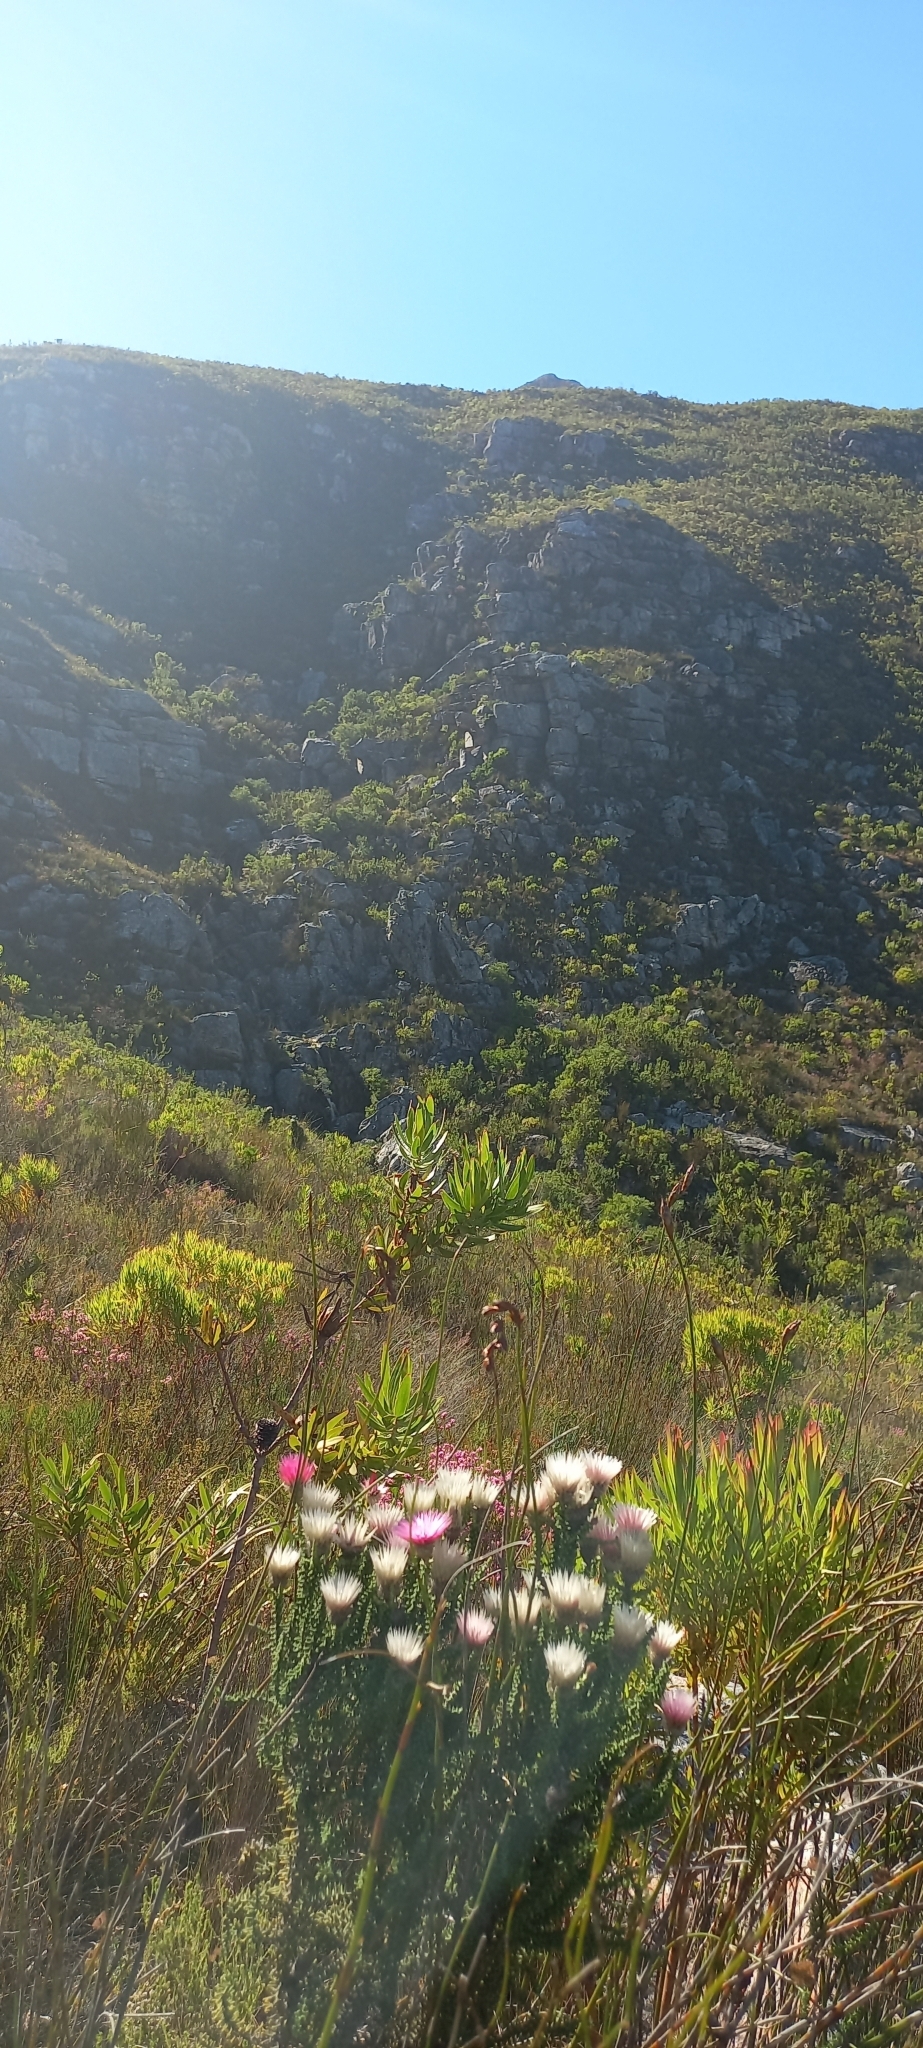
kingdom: Plantae
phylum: Tracheophyta
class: Magnoliopsida
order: Asterales
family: Asteraceae
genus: Phaenocoma
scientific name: Phaenocoma prolifera
